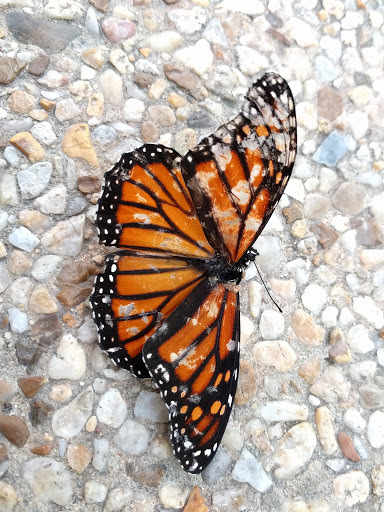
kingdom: Animalia
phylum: Arthropoda
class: Insecta
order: Lepidoptera
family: Nymphalidae
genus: Danaus
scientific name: Danaus plexippus
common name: Monarch
